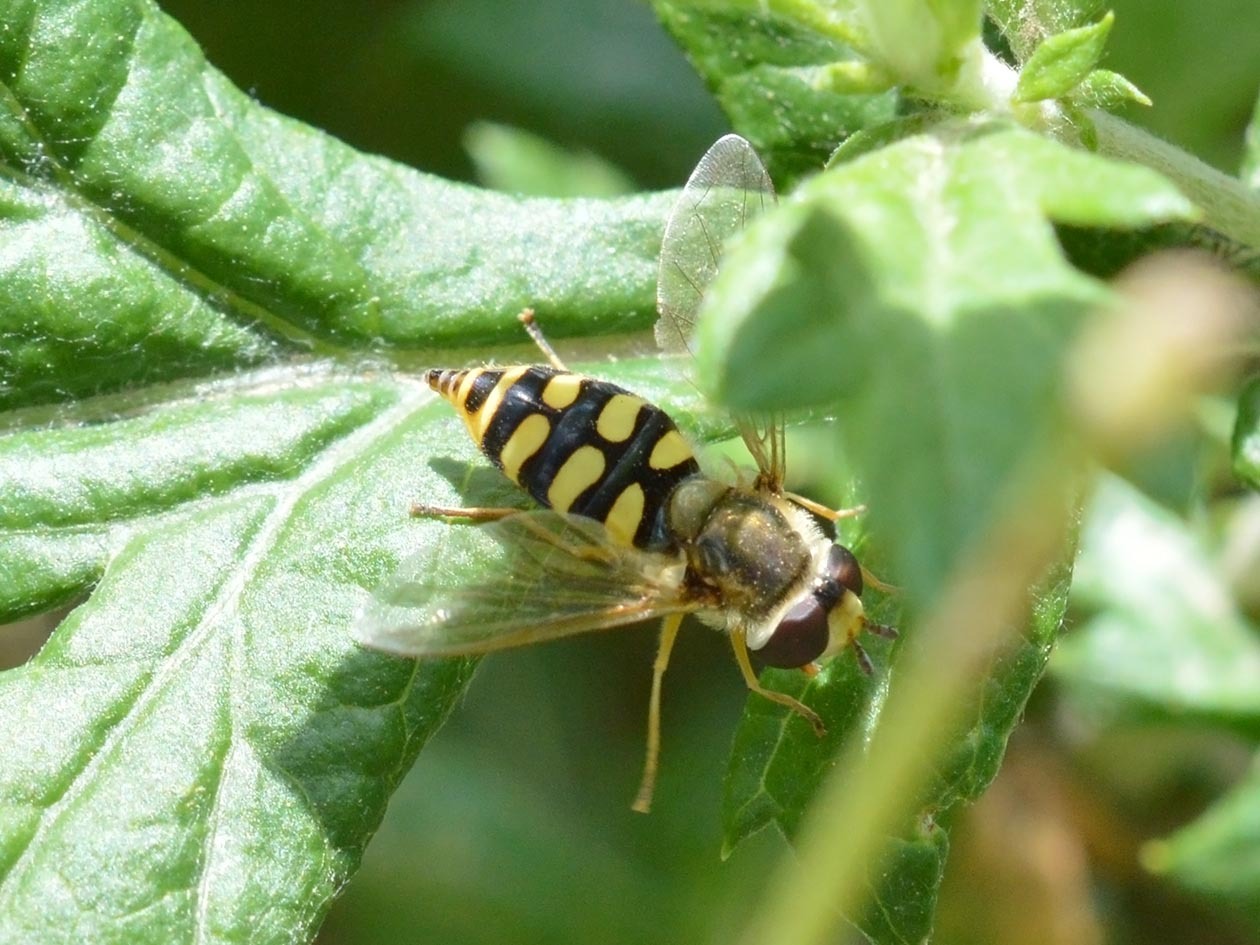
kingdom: Animalia
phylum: Arthropoda
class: Insecta
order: Diptera
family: Syrphidae
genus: Eupeodes
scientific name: Eupeodes corollae
